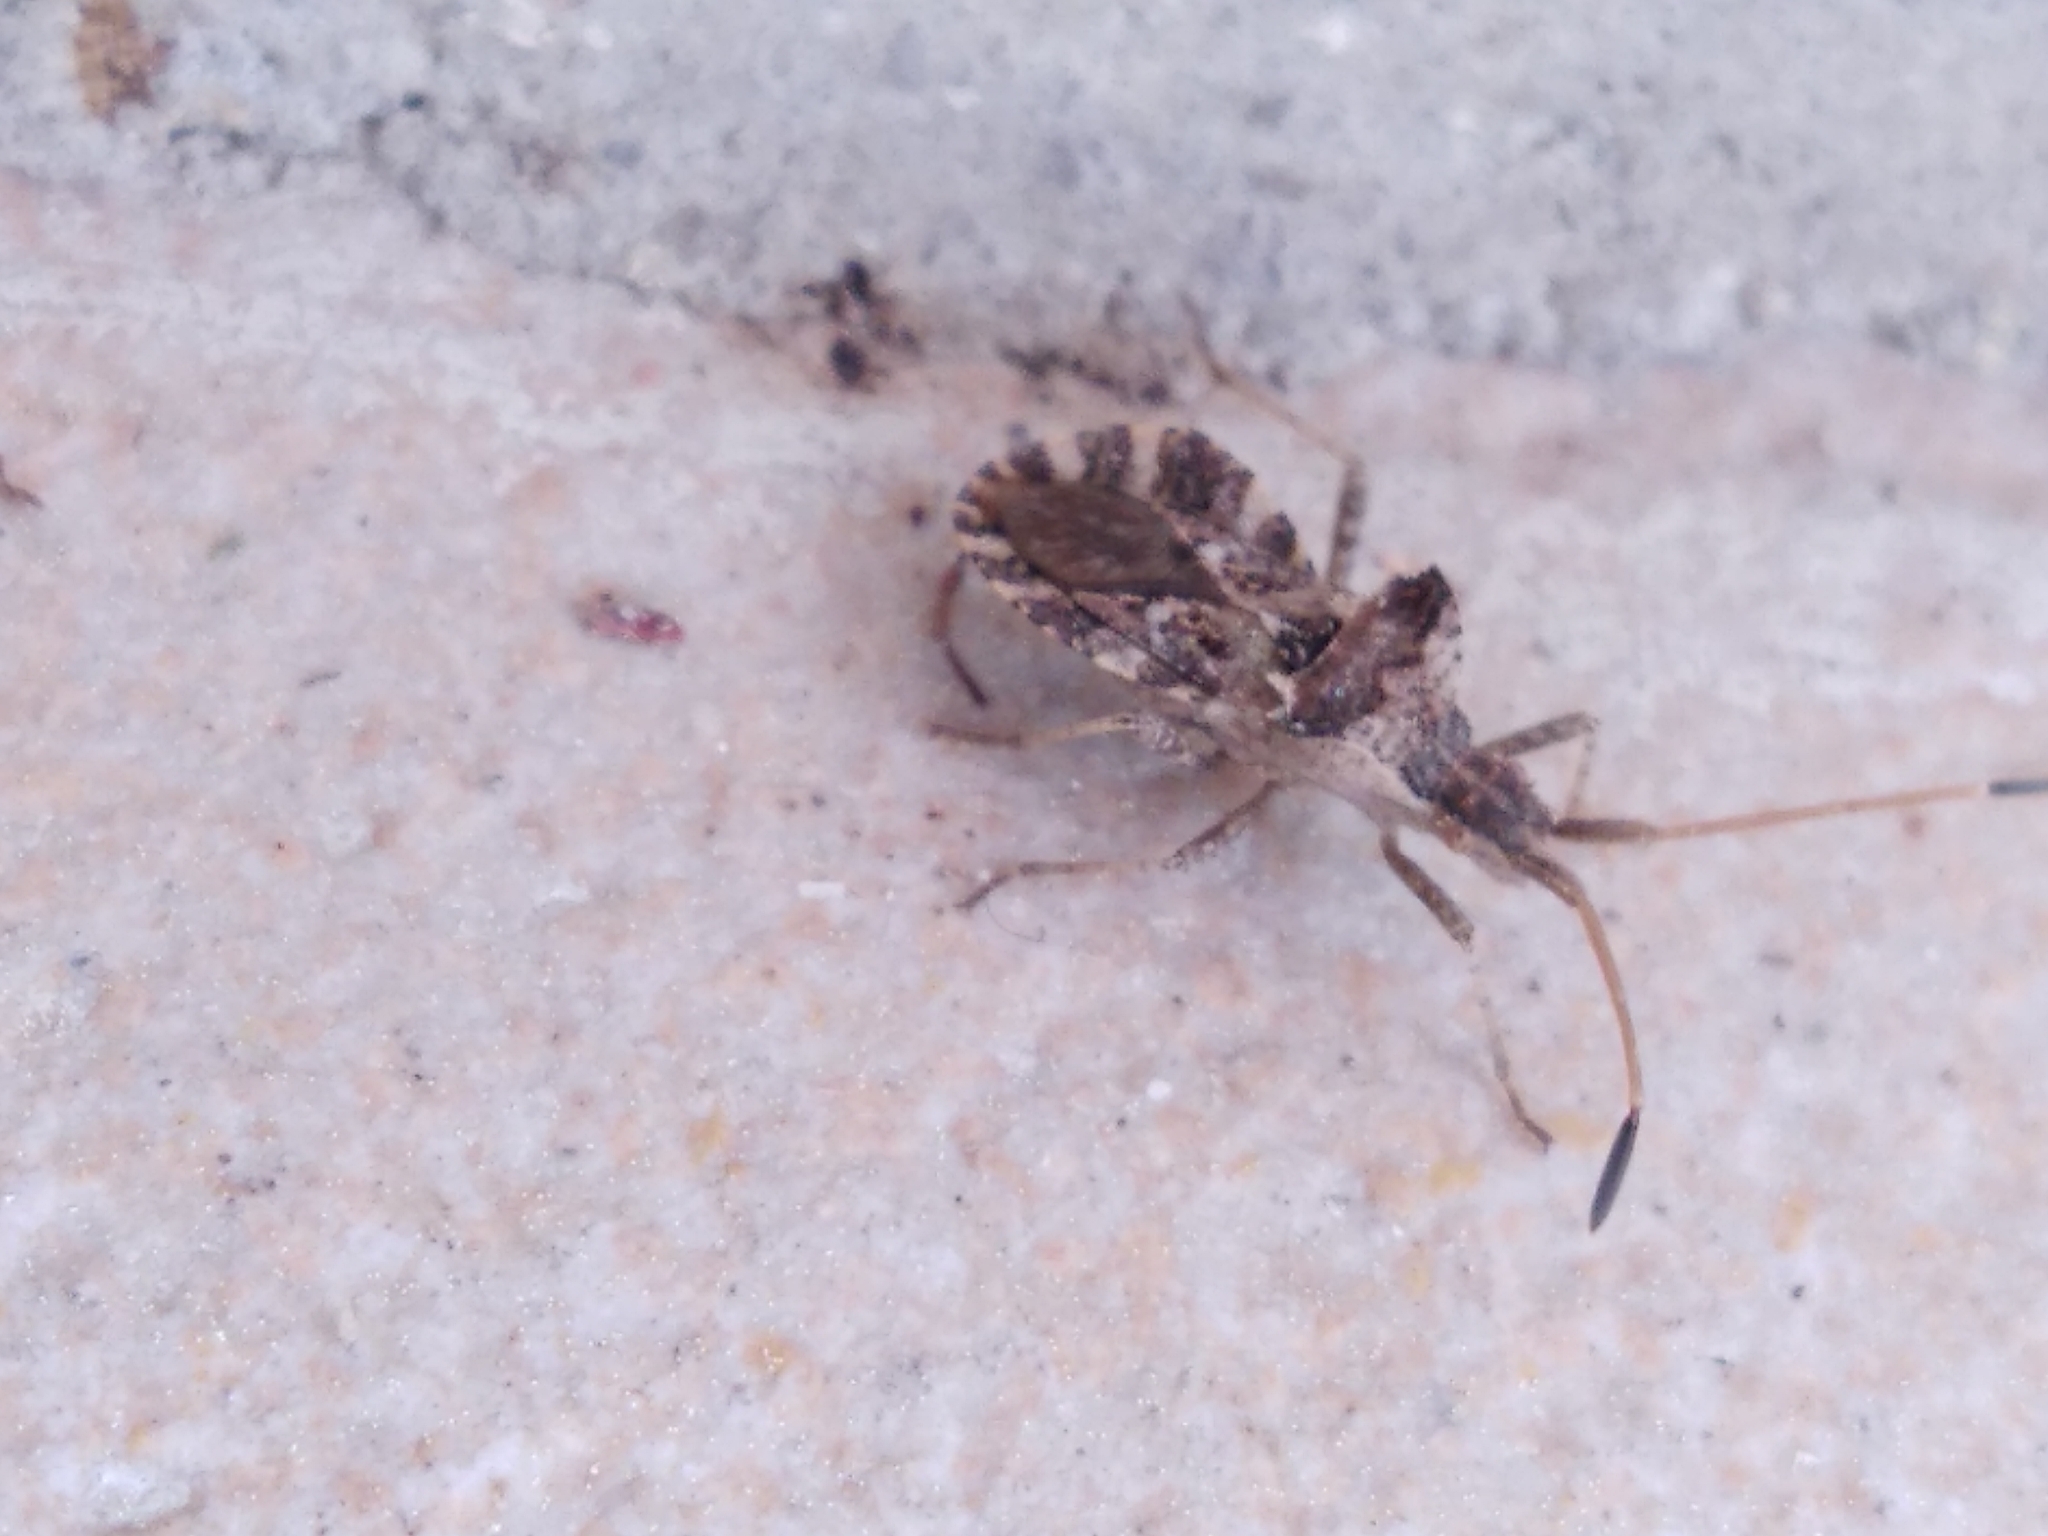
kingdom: Animalia
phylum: Arthropoda
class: Insecta
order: Hemiptera
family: Coreidae
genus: Centrocoris
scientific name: Centrocoris spiniger
